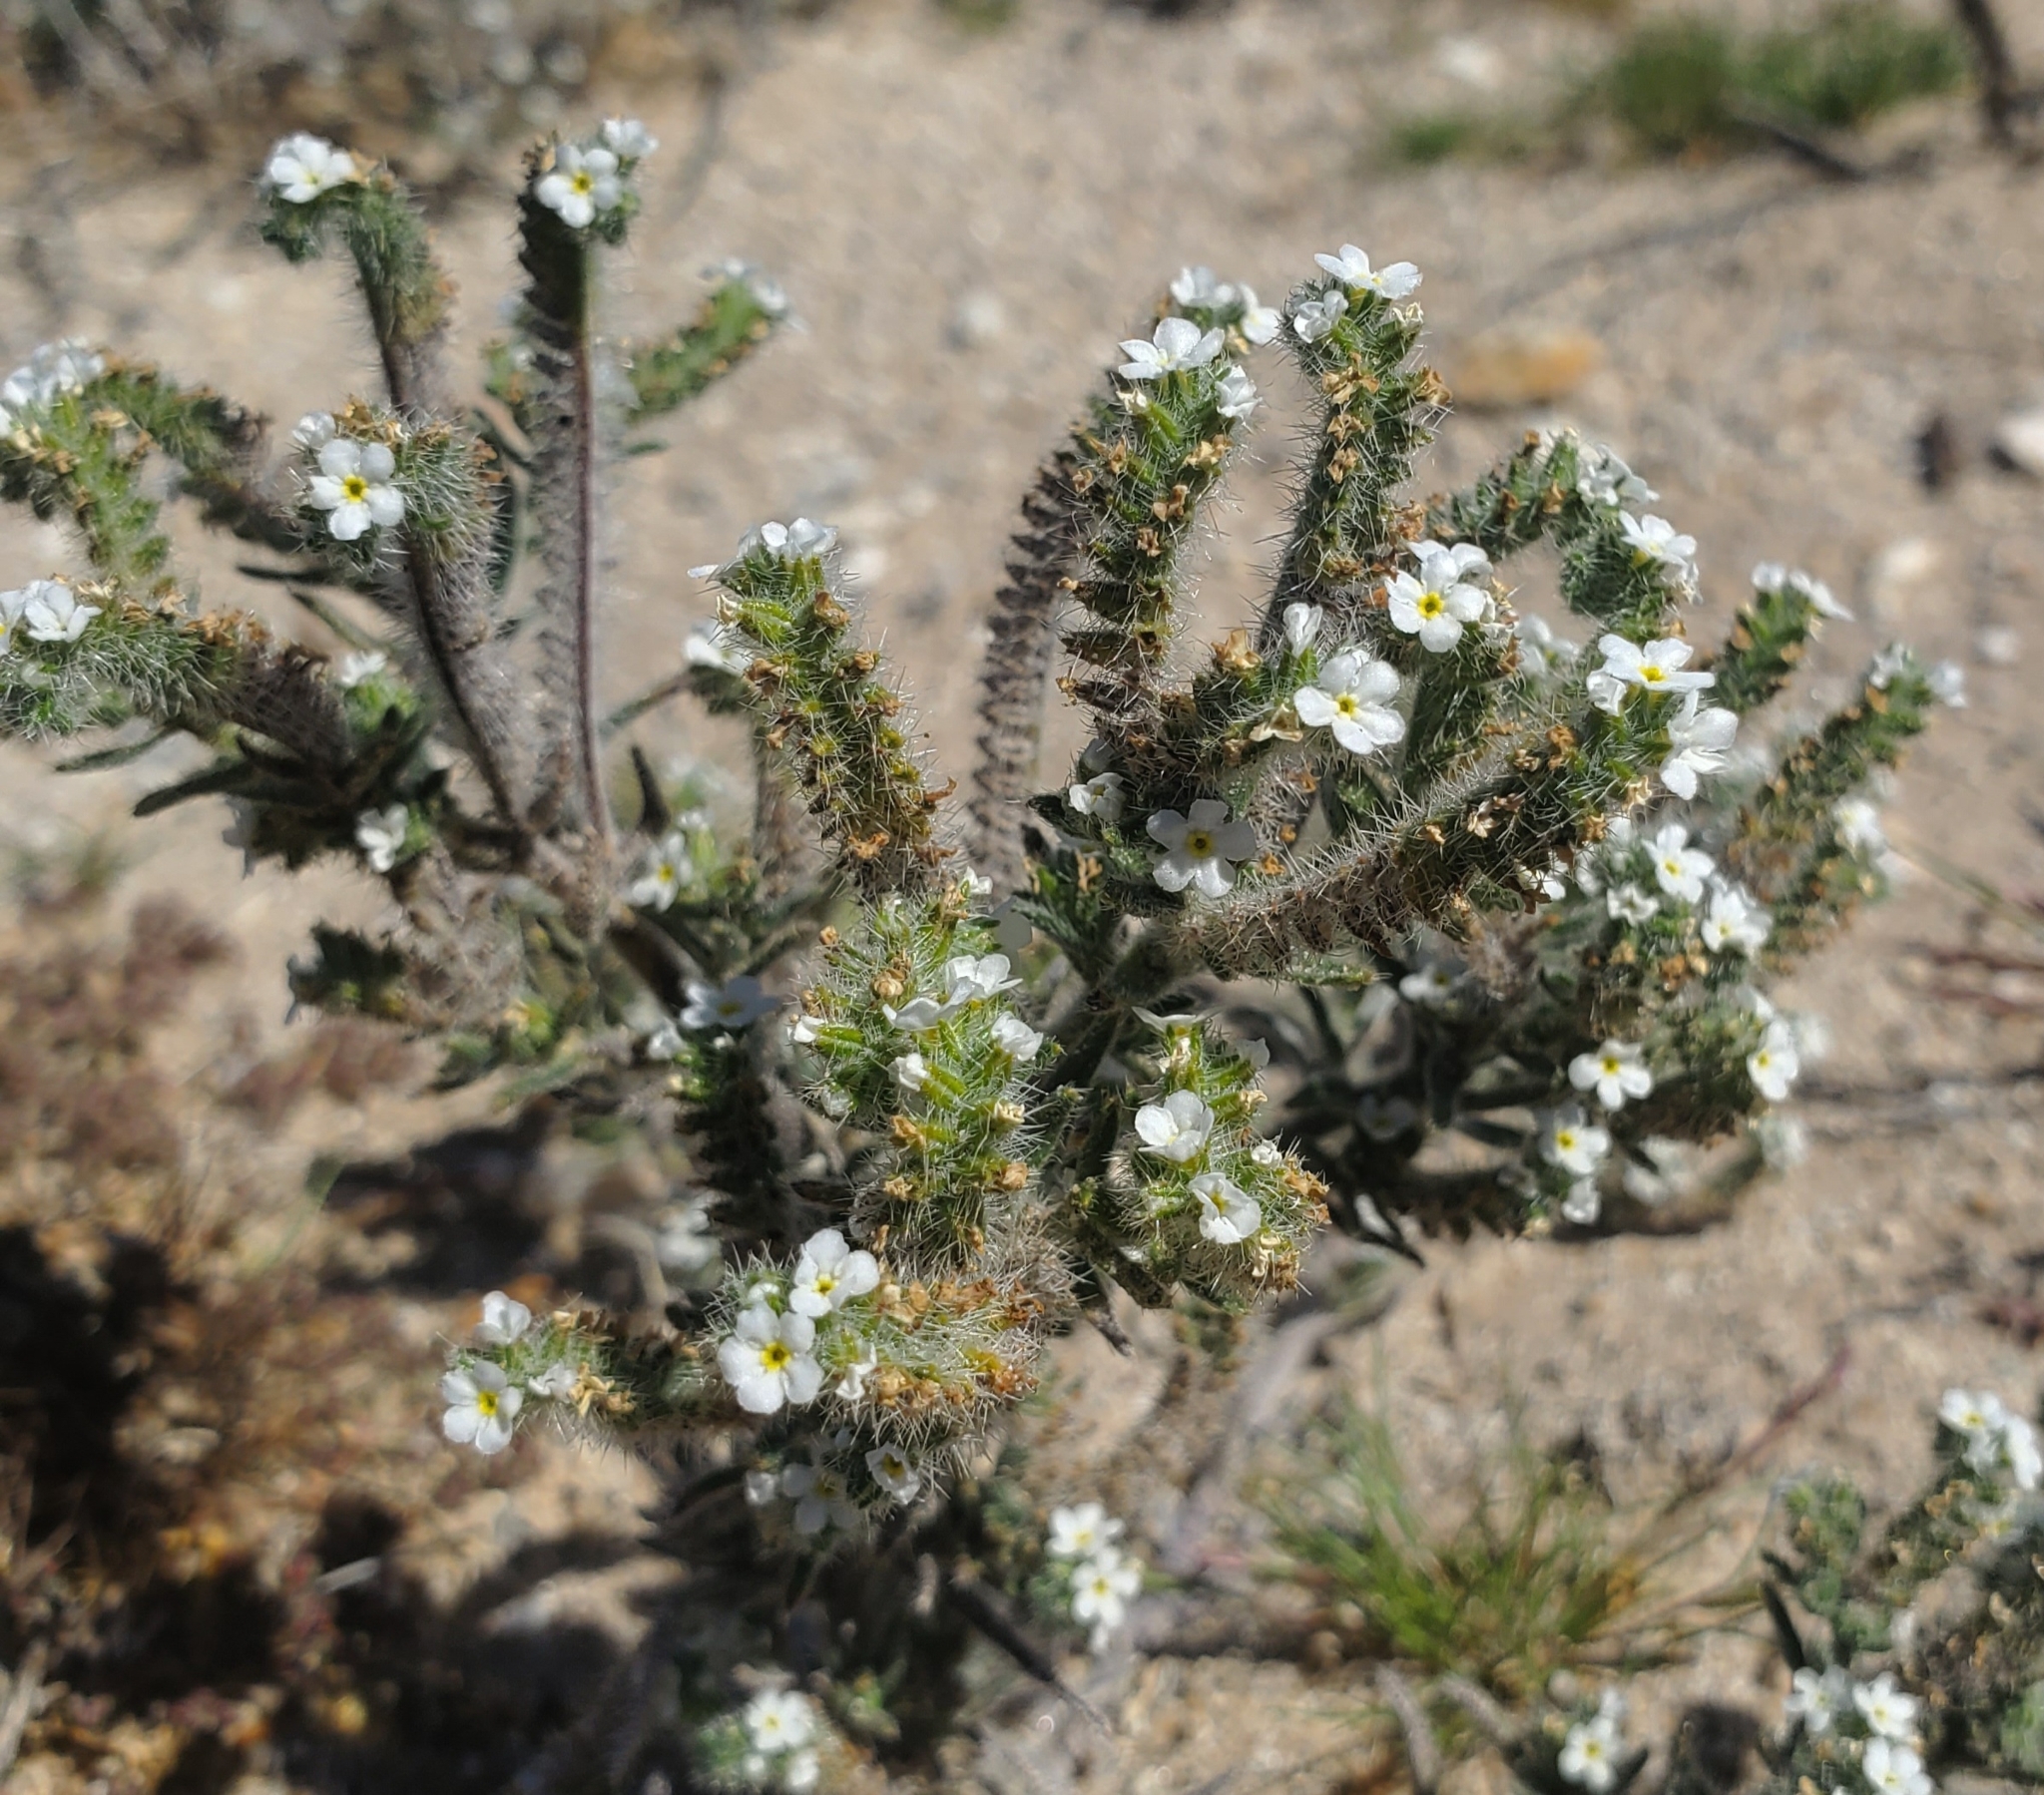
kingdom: Plantae
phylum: Tracheophyta
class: Magnoliopsida
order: Boraginales
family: Boraginaceae
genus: Johnstonella
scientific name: Johnstonella angustifolia
